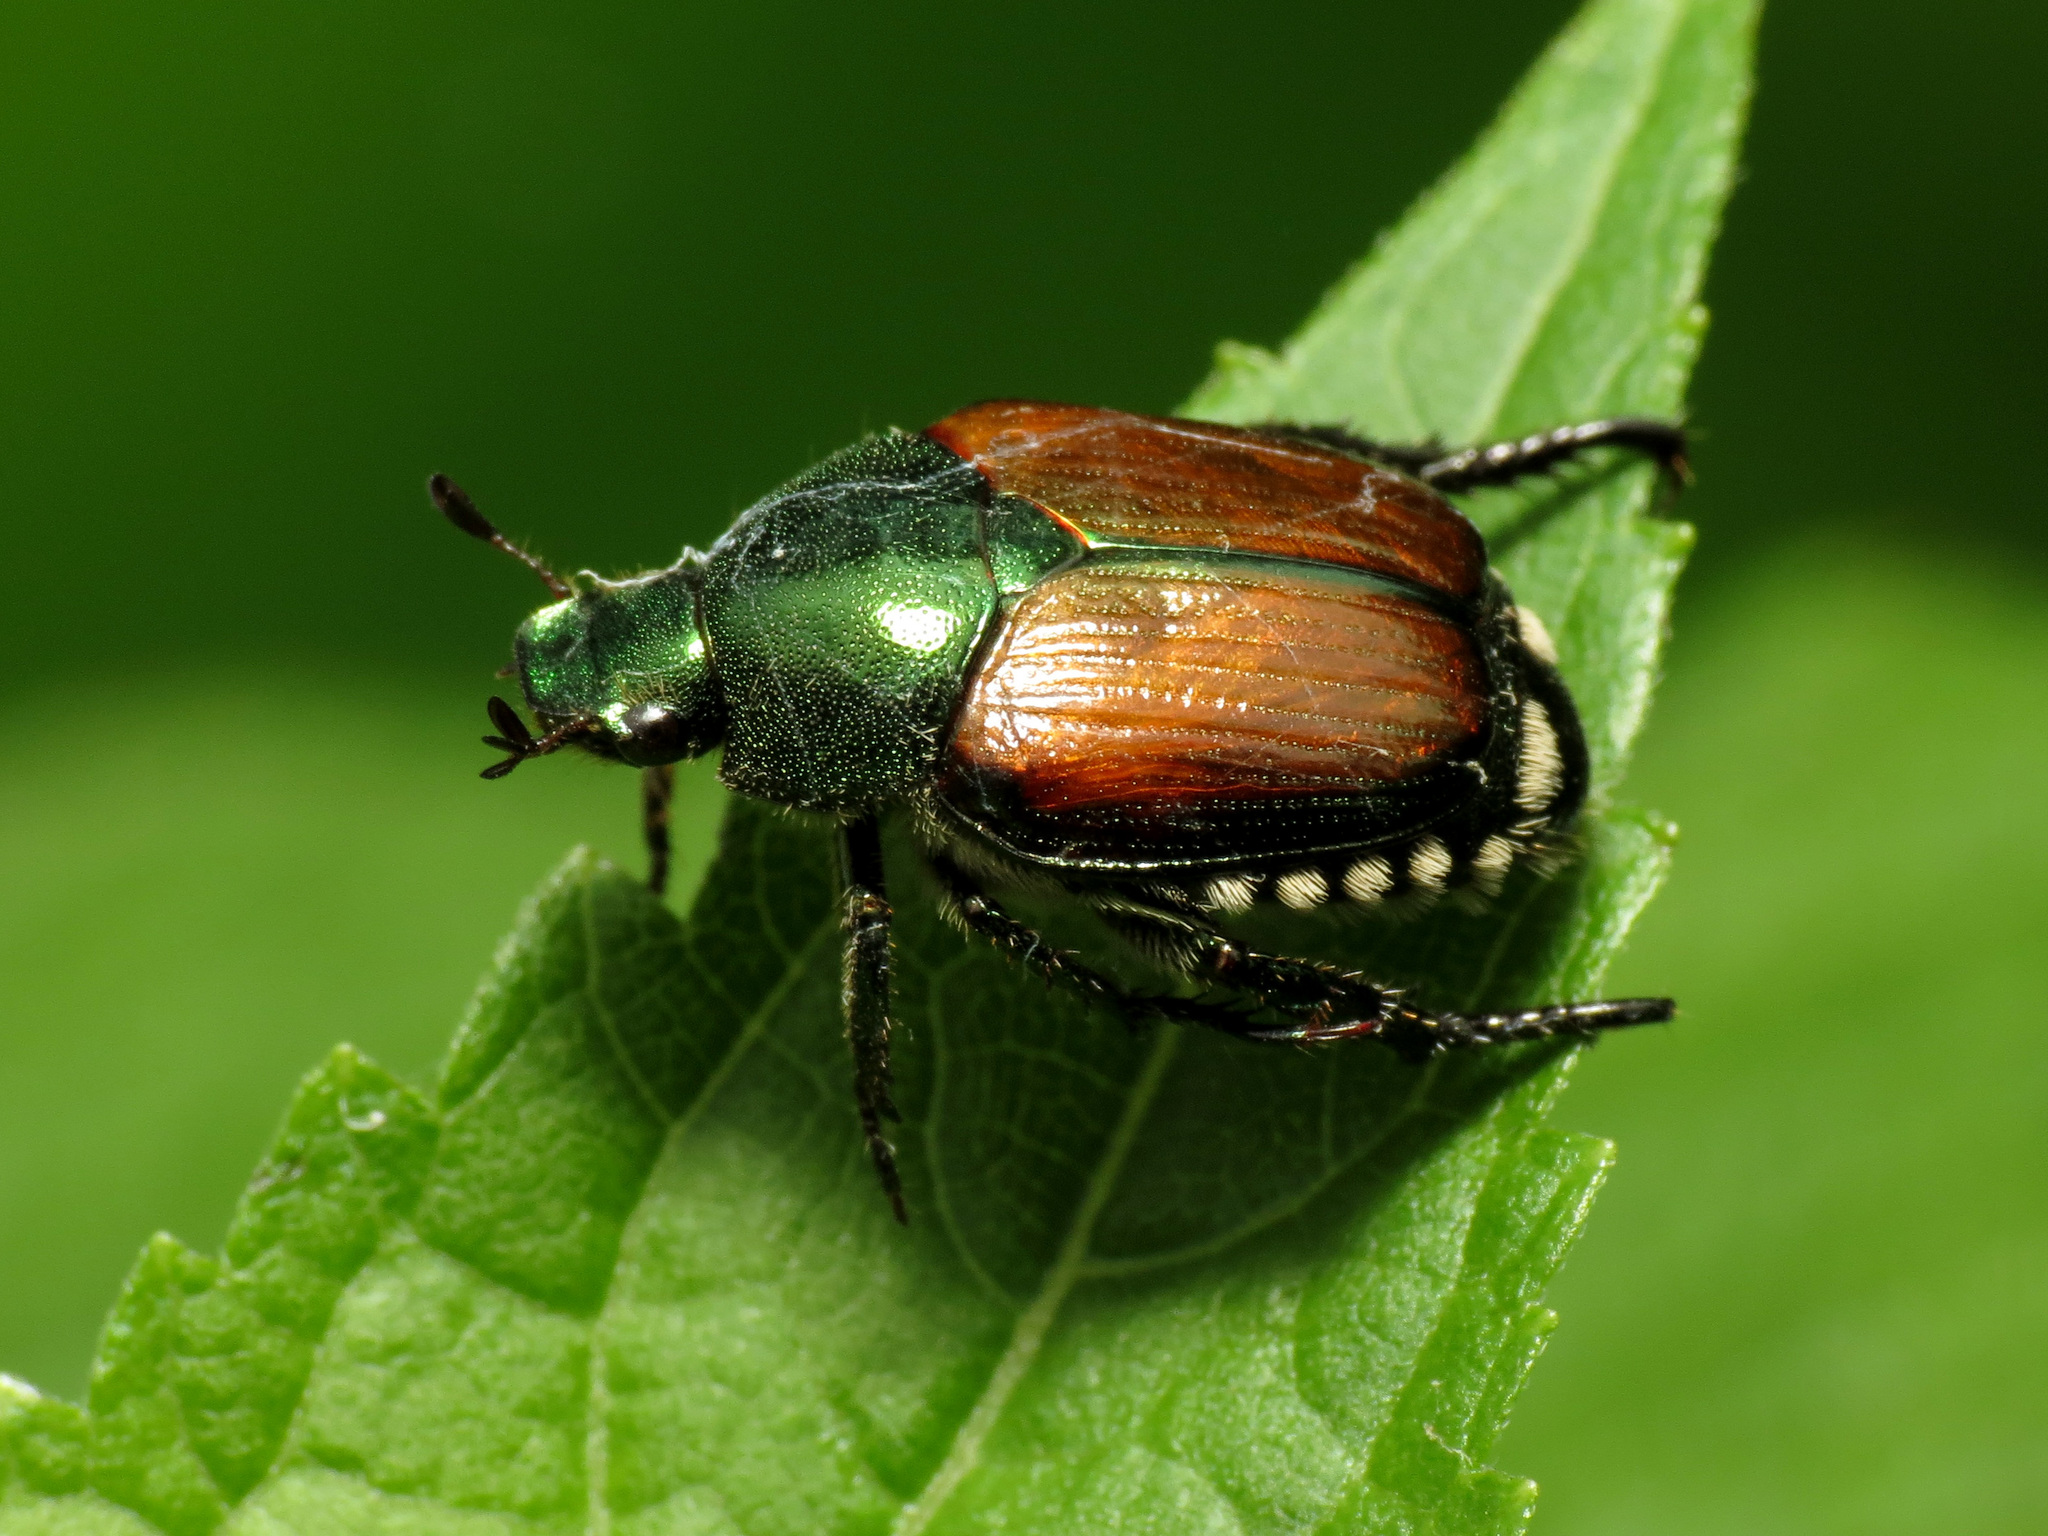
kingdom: Animalia
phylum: Arthropoda
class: Insecta
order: Coleoptera
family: Scarabaeidae
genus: Popillia
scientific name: Popillia japonica
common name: Japanese beetle
